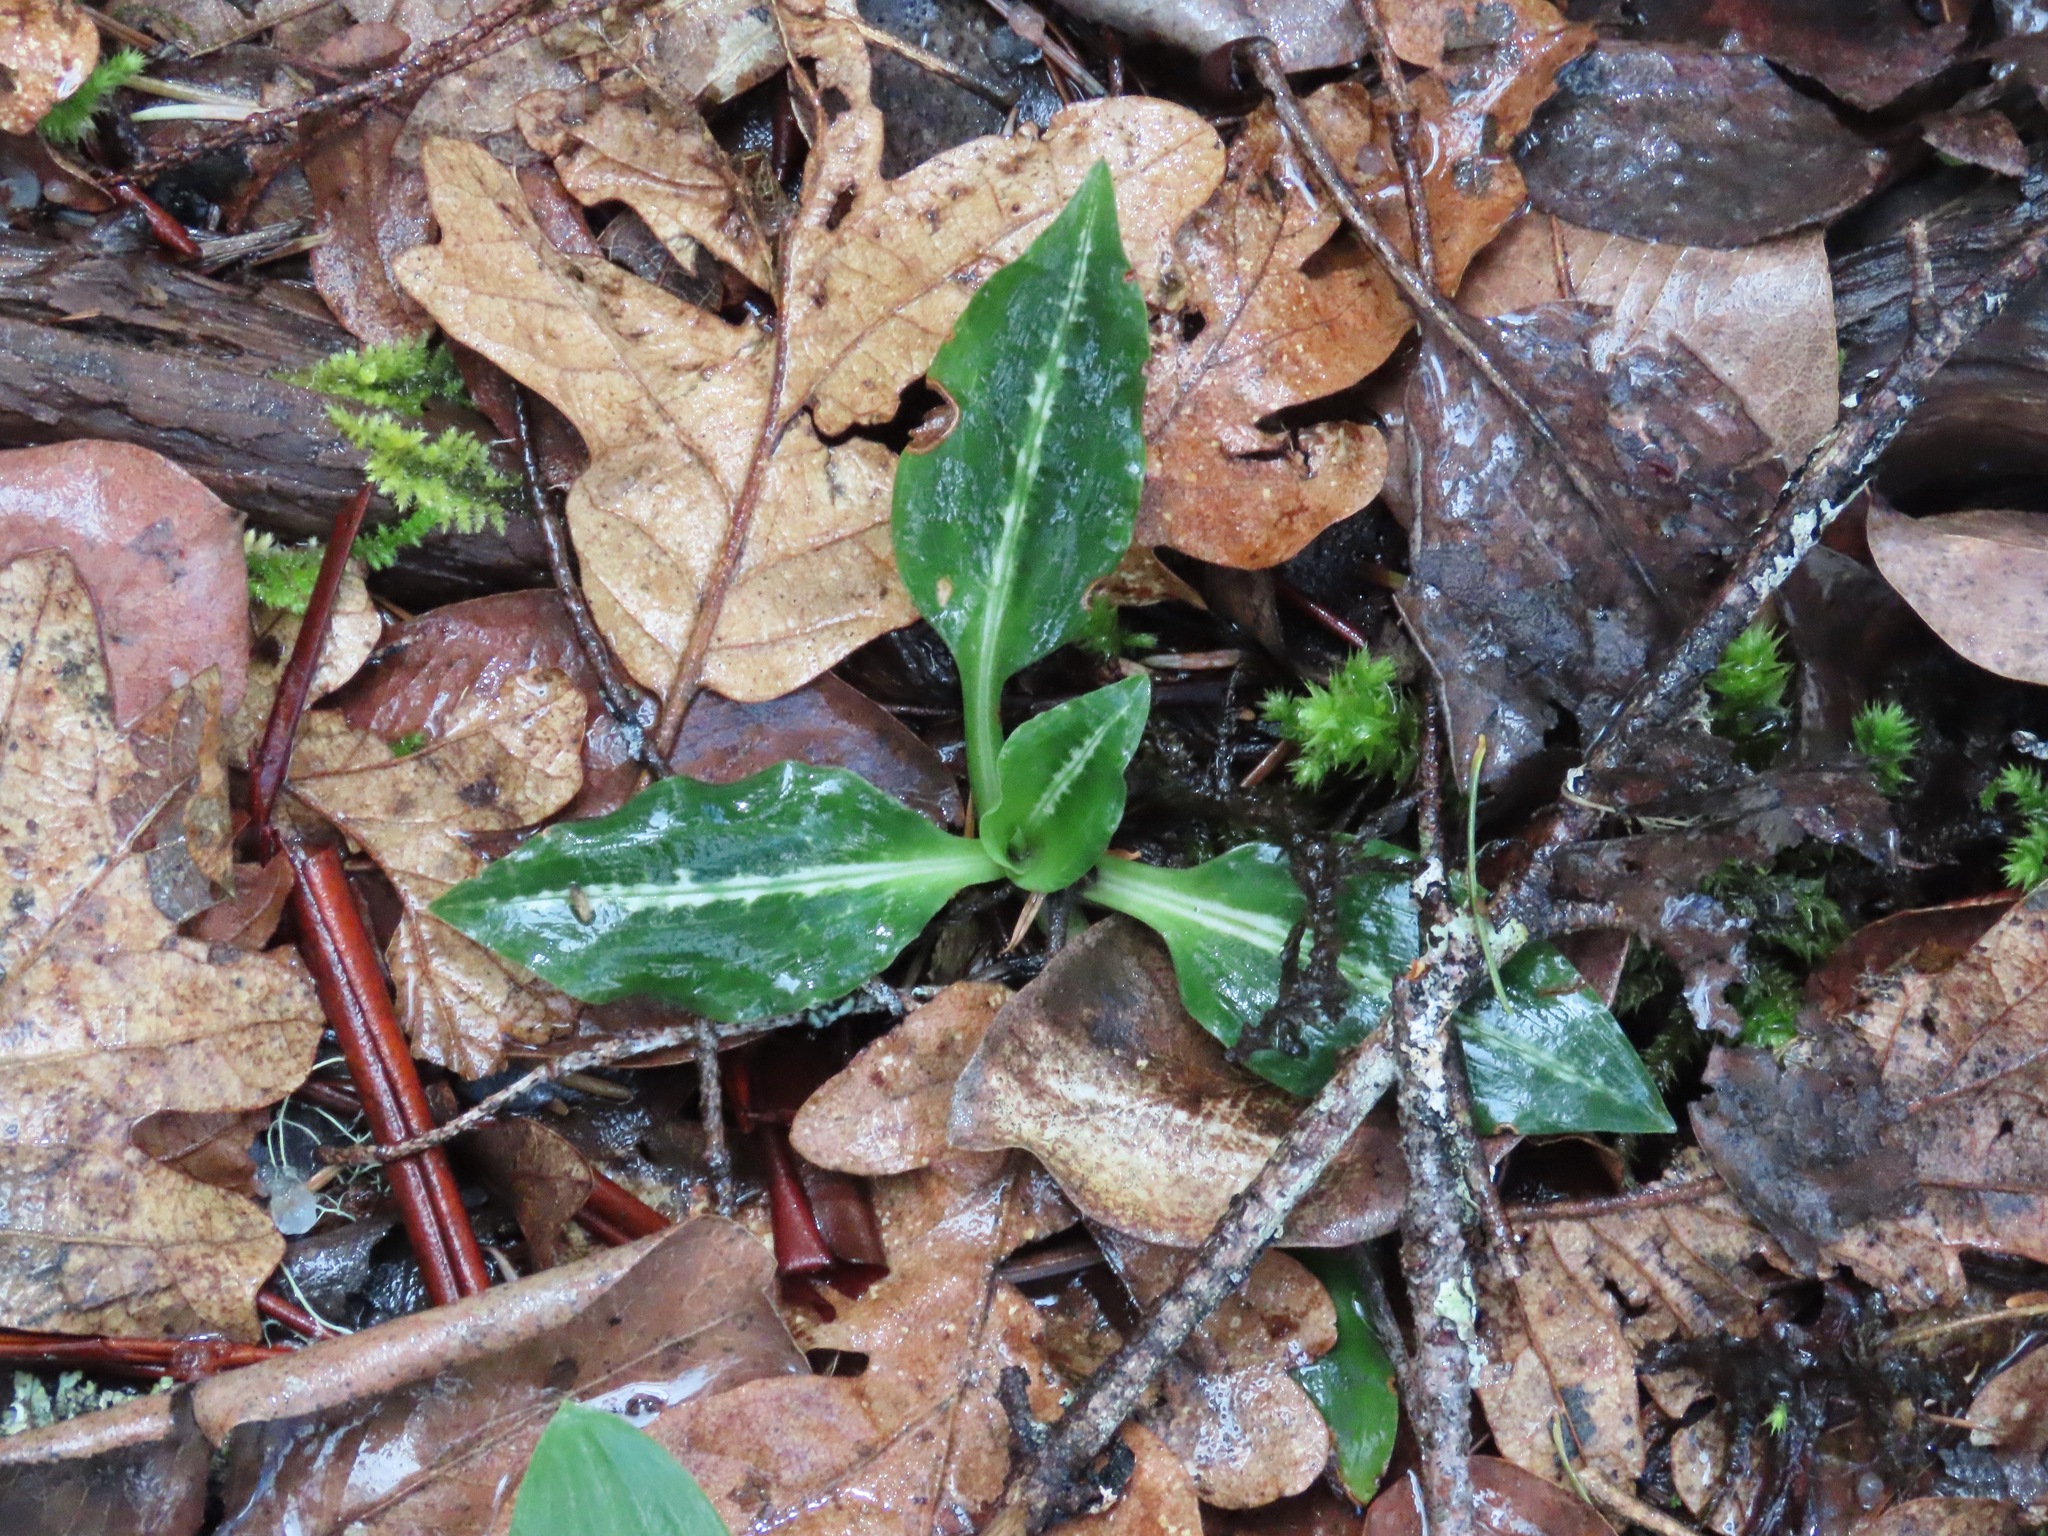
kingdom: Plantae
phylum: Tracheophyta
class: Liliopsida
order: Asparagales
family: Orchidaceae
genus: Goodyera
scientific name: Goodyera oblongifolia
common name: Giant rattlesnake-plantain
